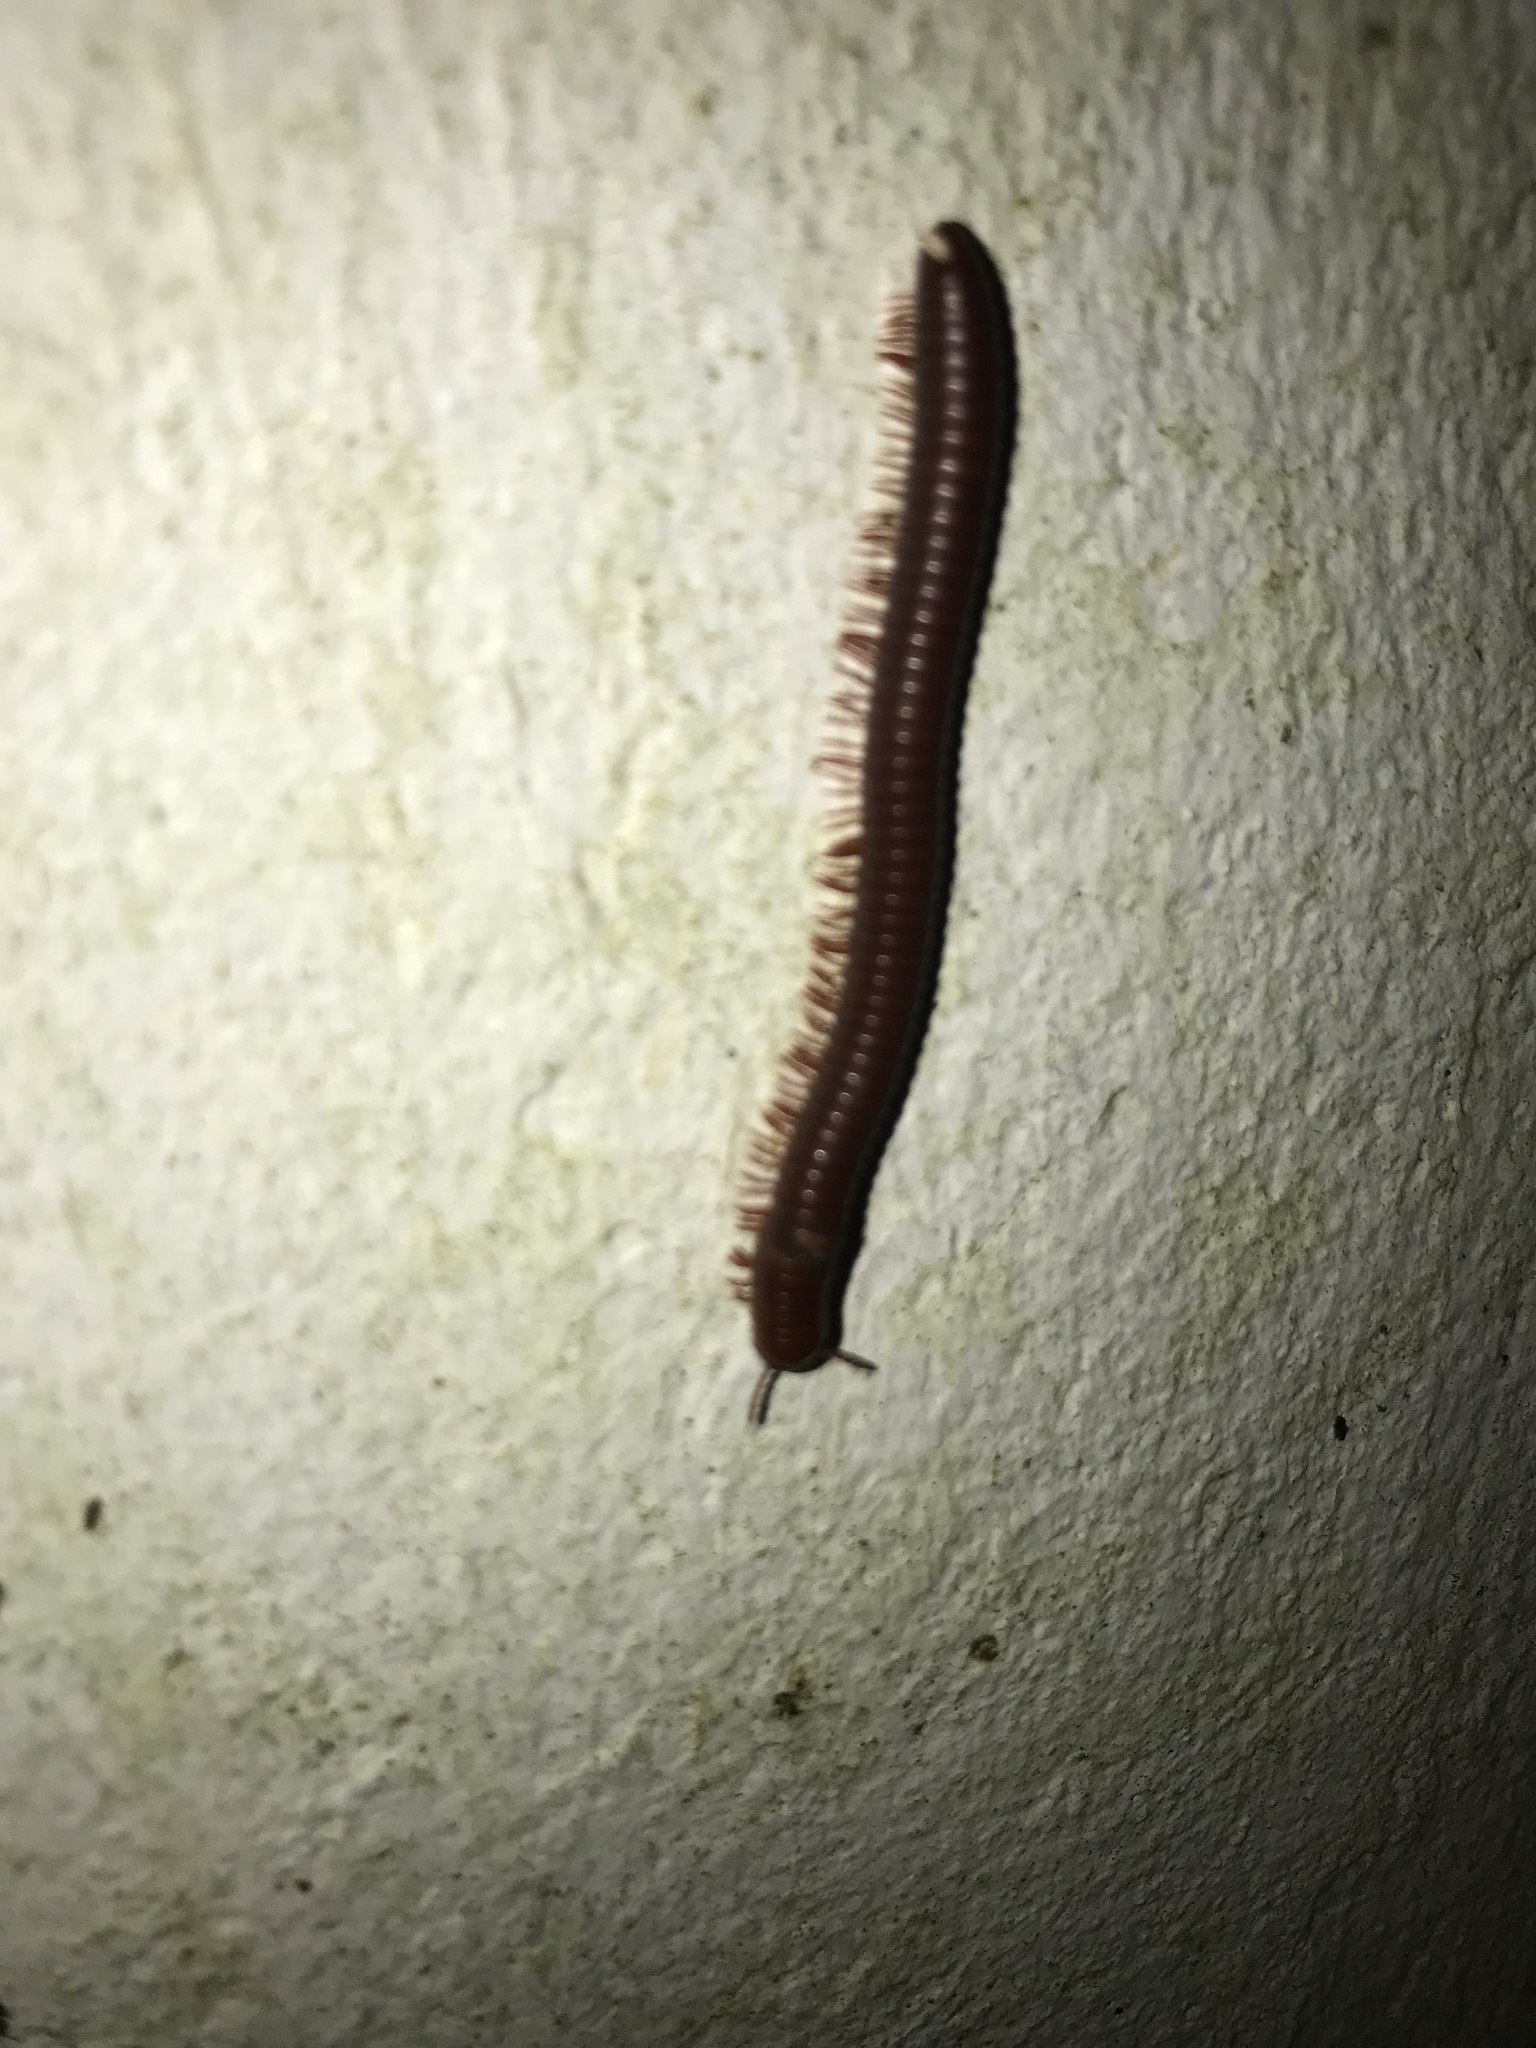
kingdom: Animalia
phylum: Arthropoda
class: Diplopoda
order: Spirobolida
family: Pachybolidae
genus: Trigoniulus
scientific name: Trigoniulus corallinus
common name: Millipede
